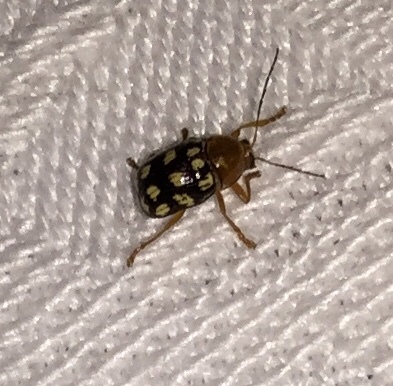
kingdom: Animalia
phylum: Arthropoda
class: Insecta
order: Coleoptera
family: Chrysomelidae
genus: Cryptocephalus
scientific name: Cryptocephalus guttulatus
